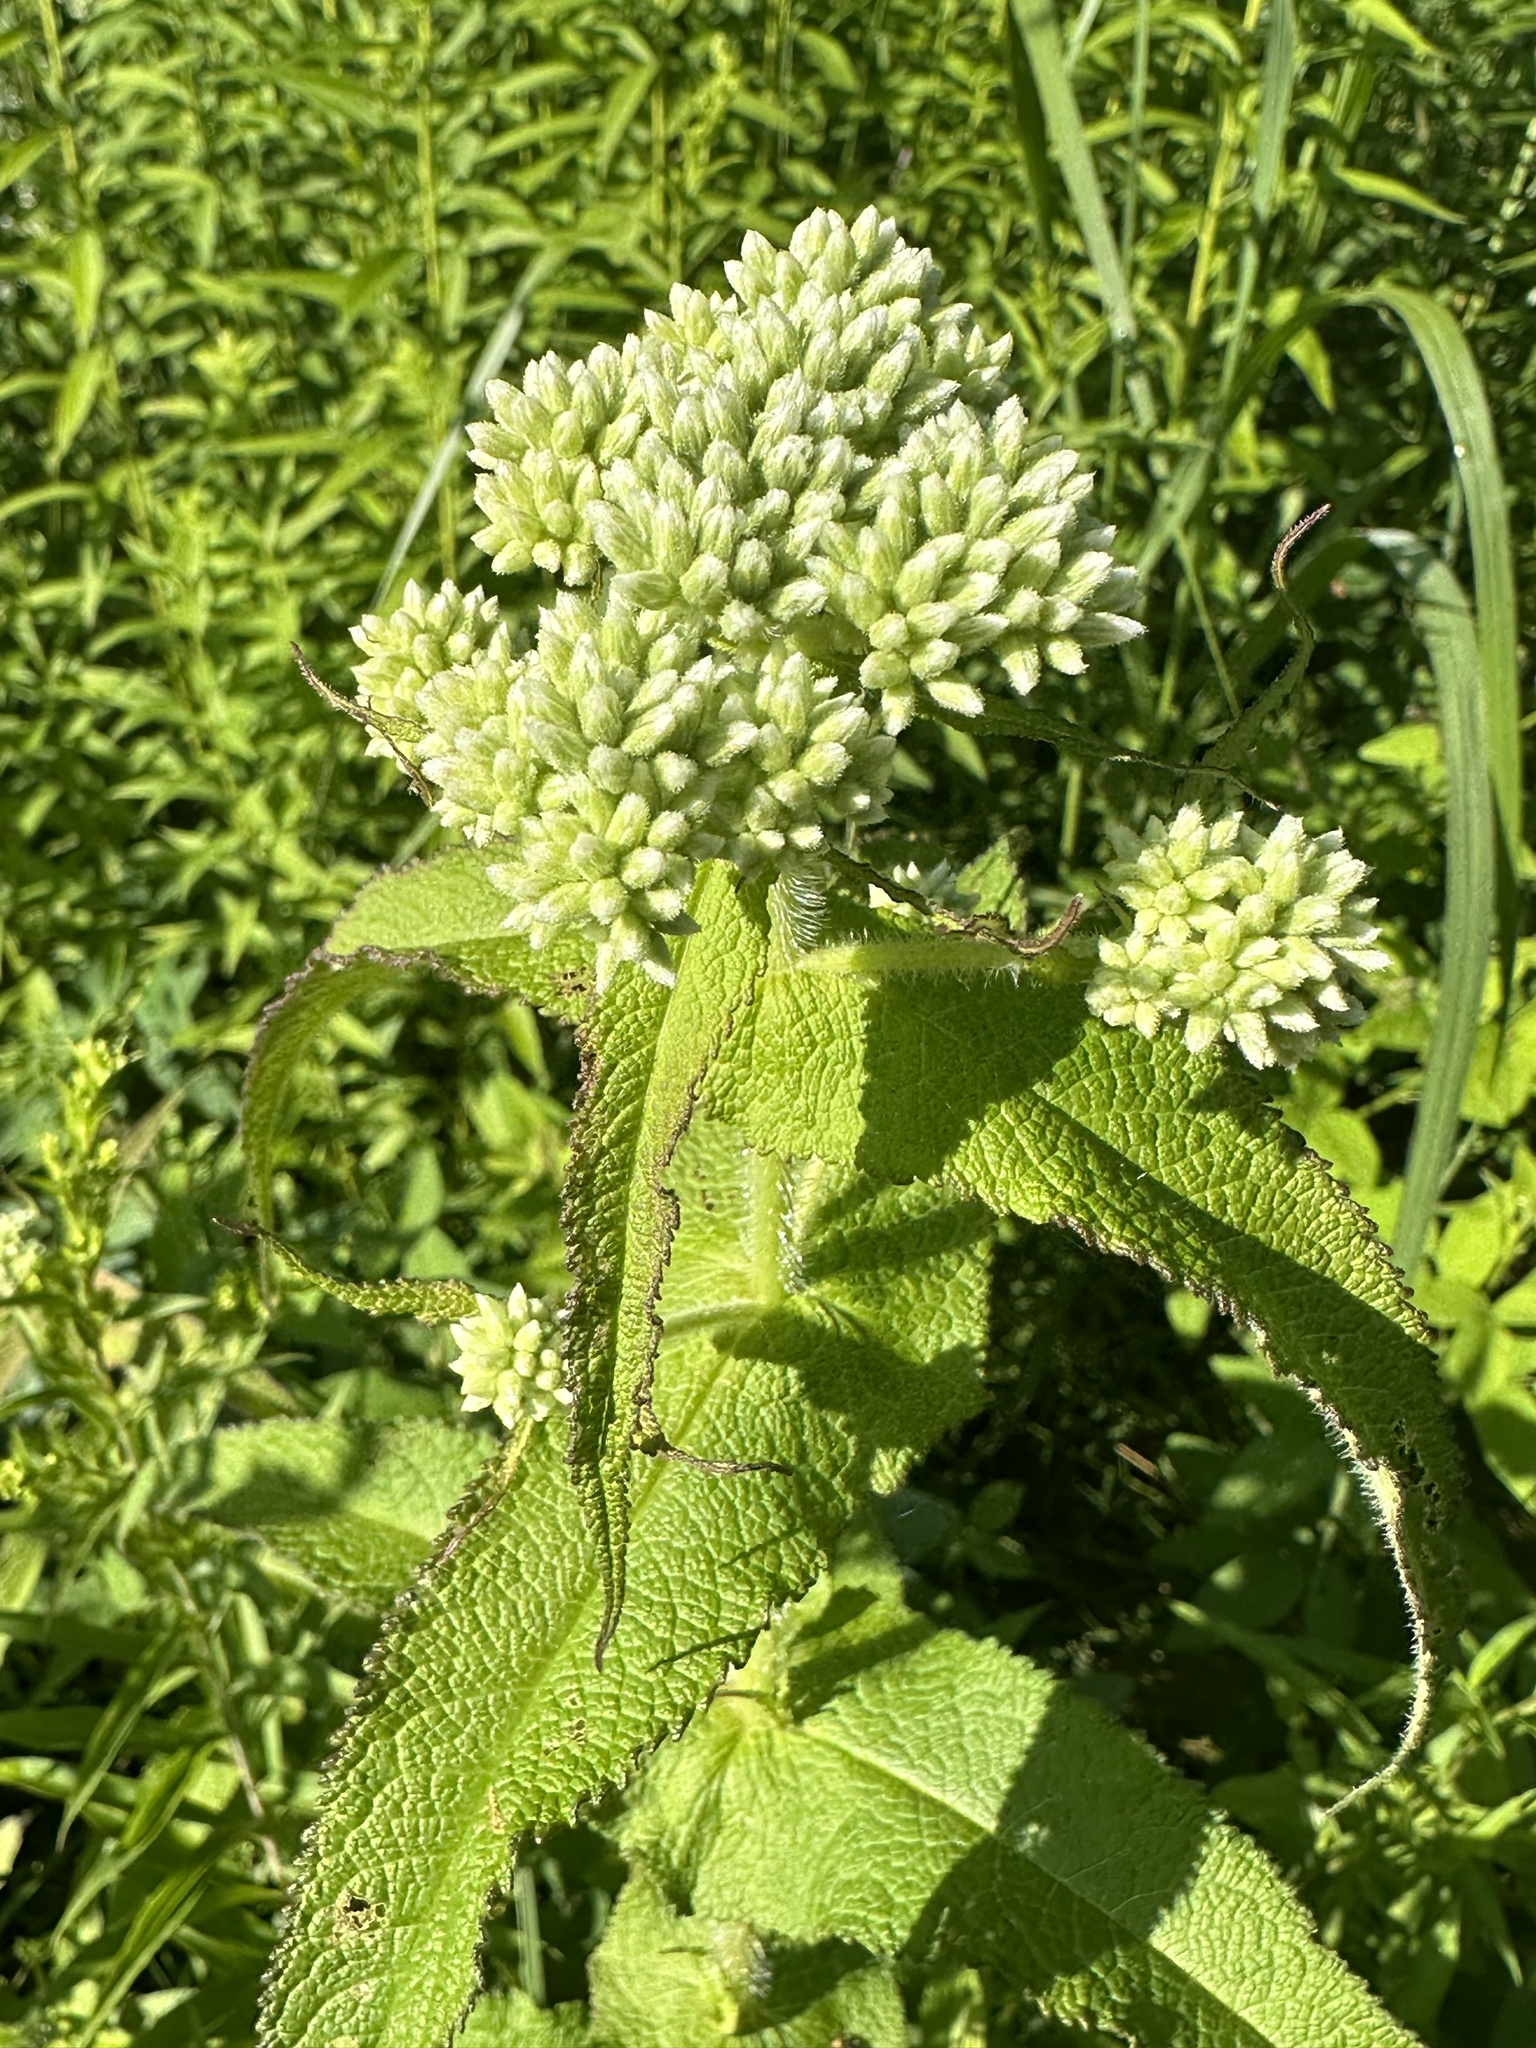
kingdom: Plantae
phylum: Tracheophyta
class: Magnoliopsida
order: Asterales
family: Asteraceae
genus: Eupatorium
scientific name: Eupatorium perfoliatum
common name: Boneset
